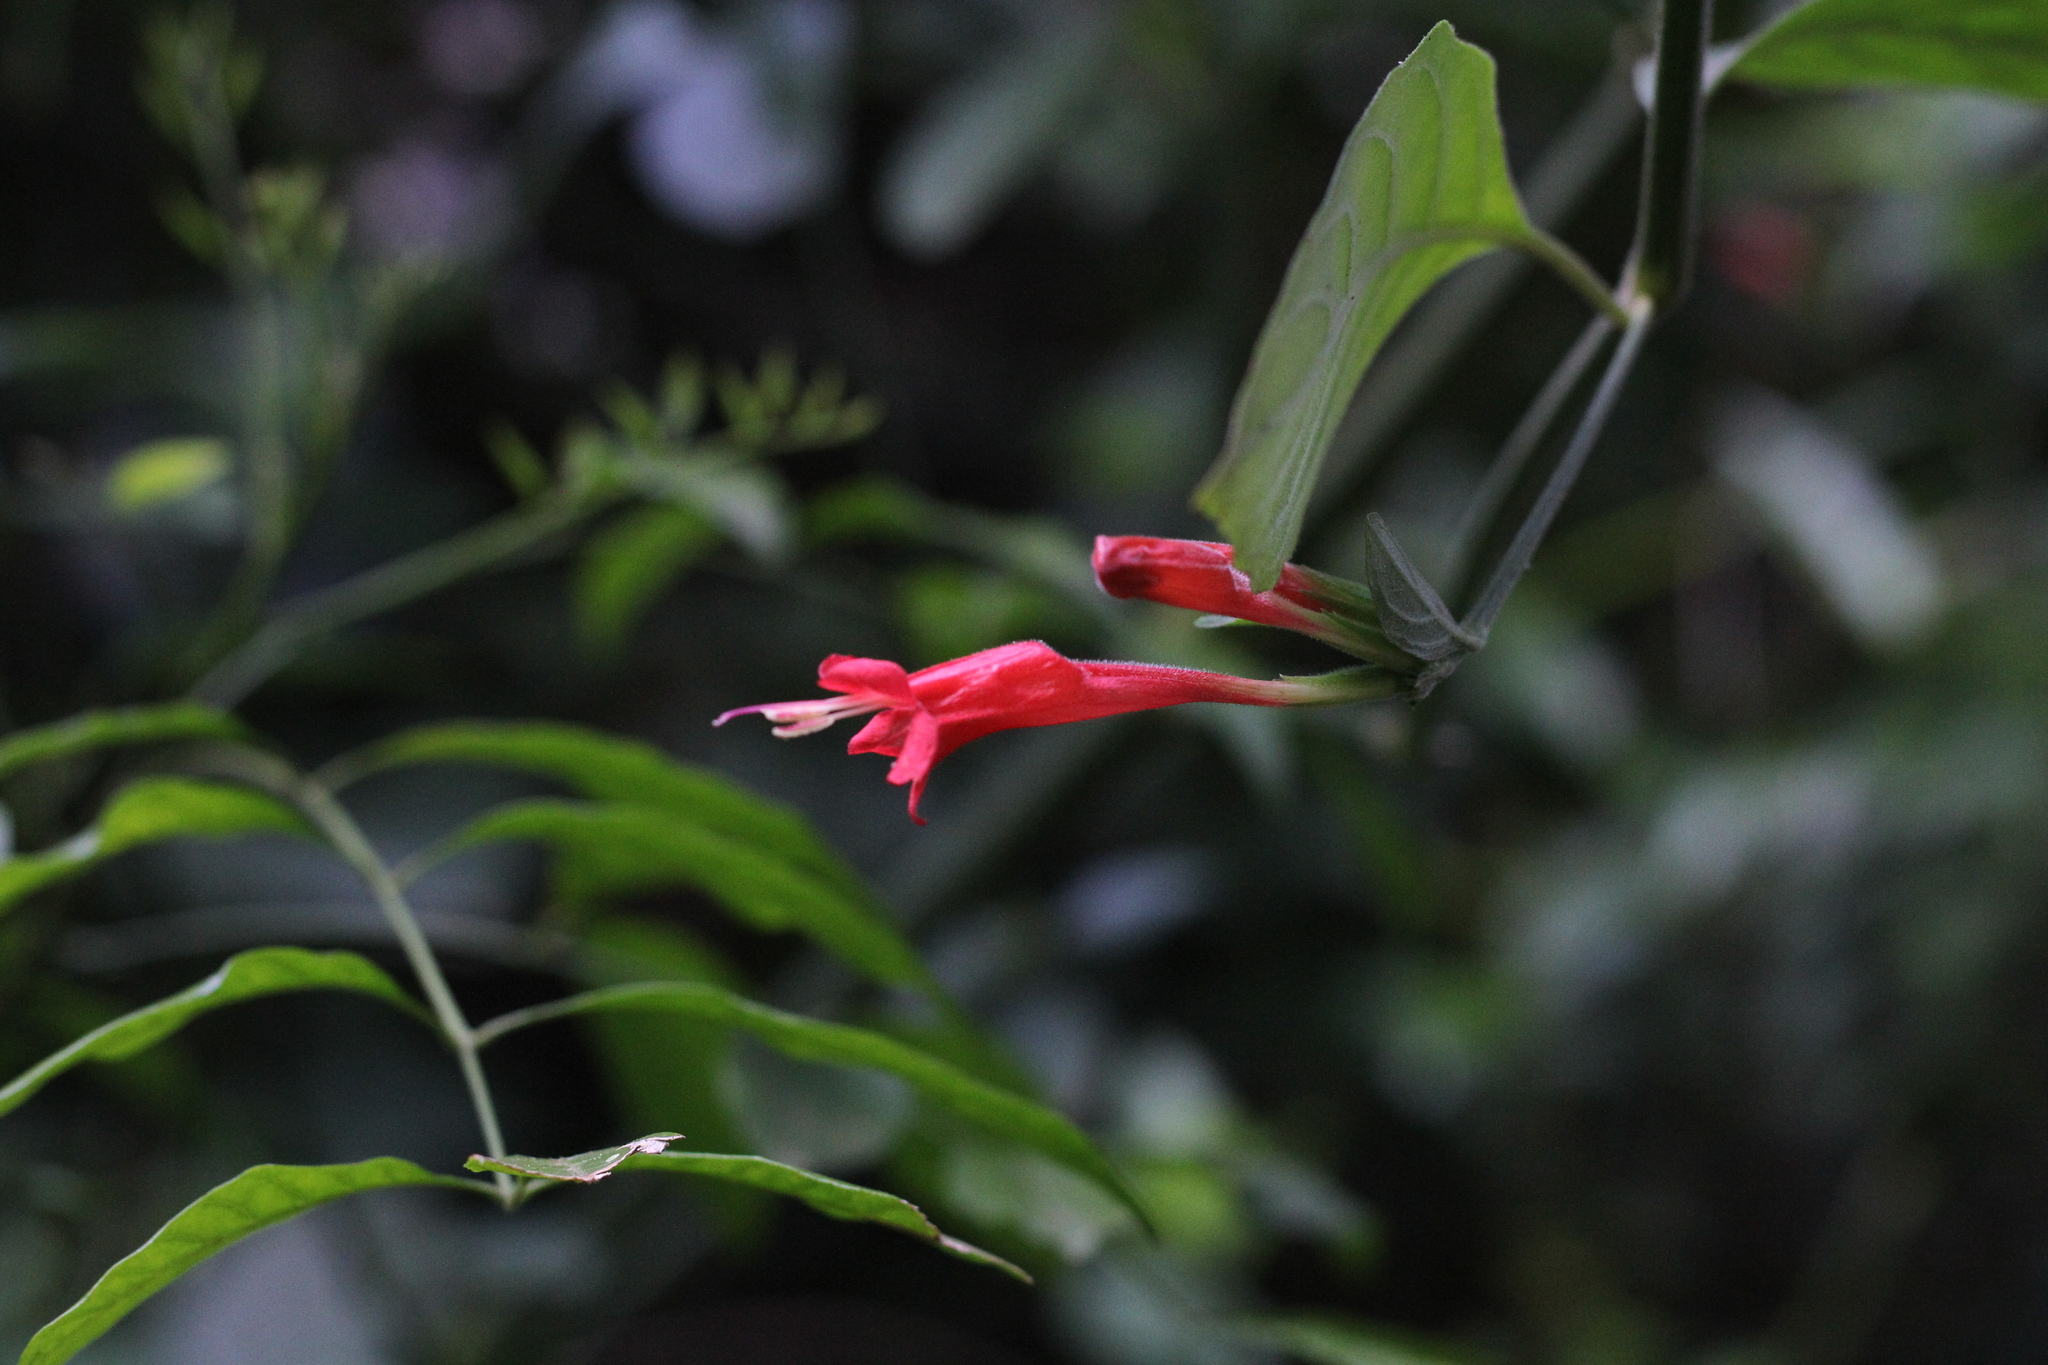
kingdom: Plantae
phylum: Tracheophyta
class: Magnoliopsida
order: Lamiales
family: Acanthaceae
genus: Ruellia
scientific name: Ruellia angustiflora
